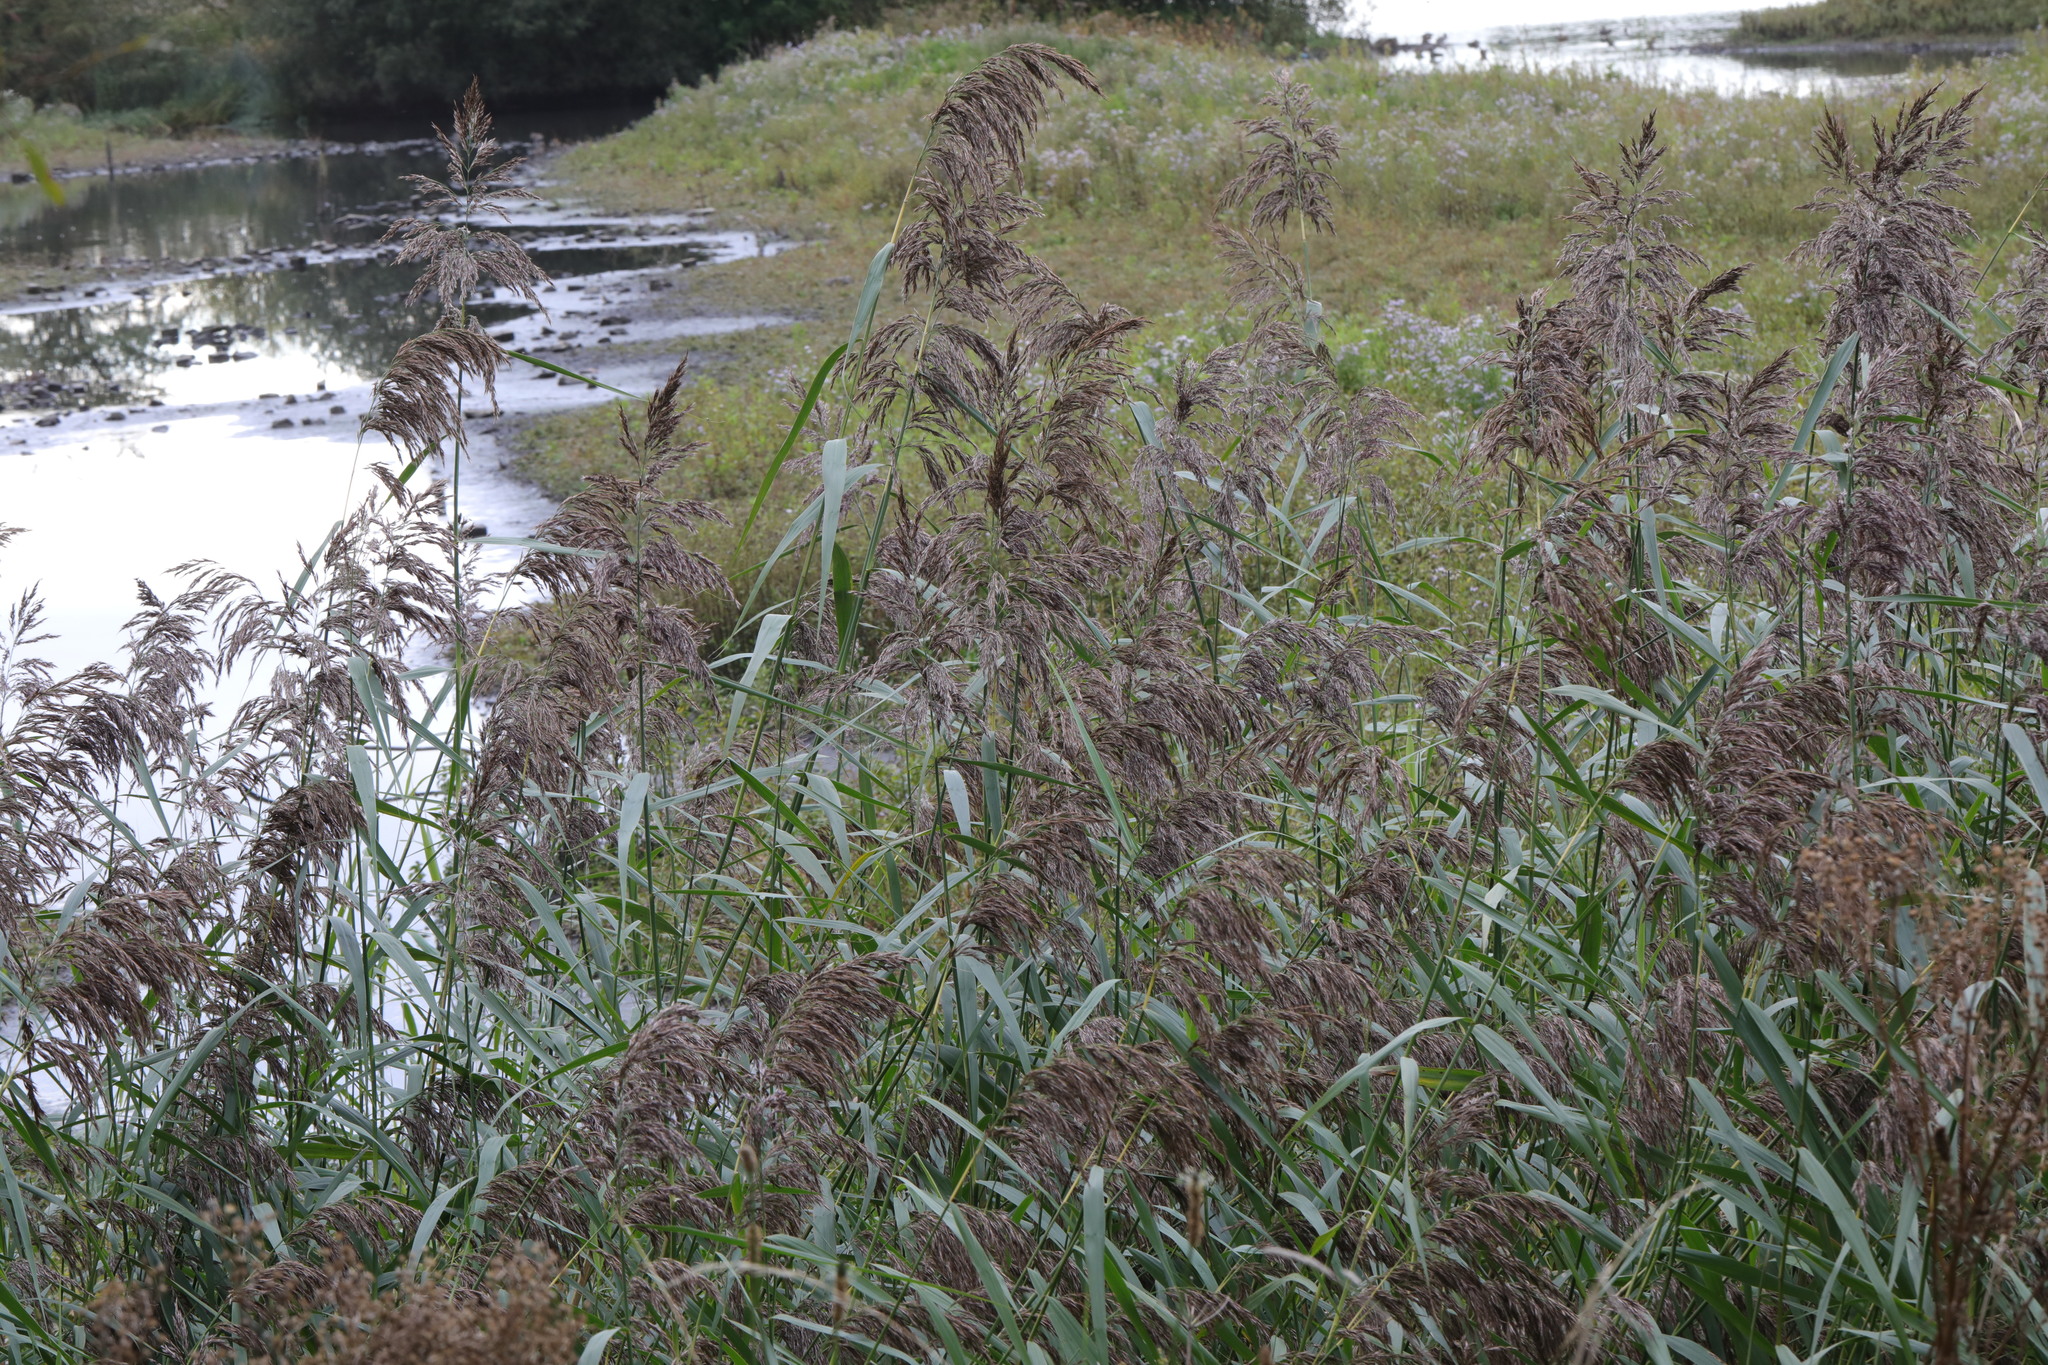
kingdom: Plantae
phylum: Tracheophyta
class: Liliopsida
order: Poales
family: Poaceae
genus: Phragmites
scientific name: Phragmites australis
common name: Common reed
